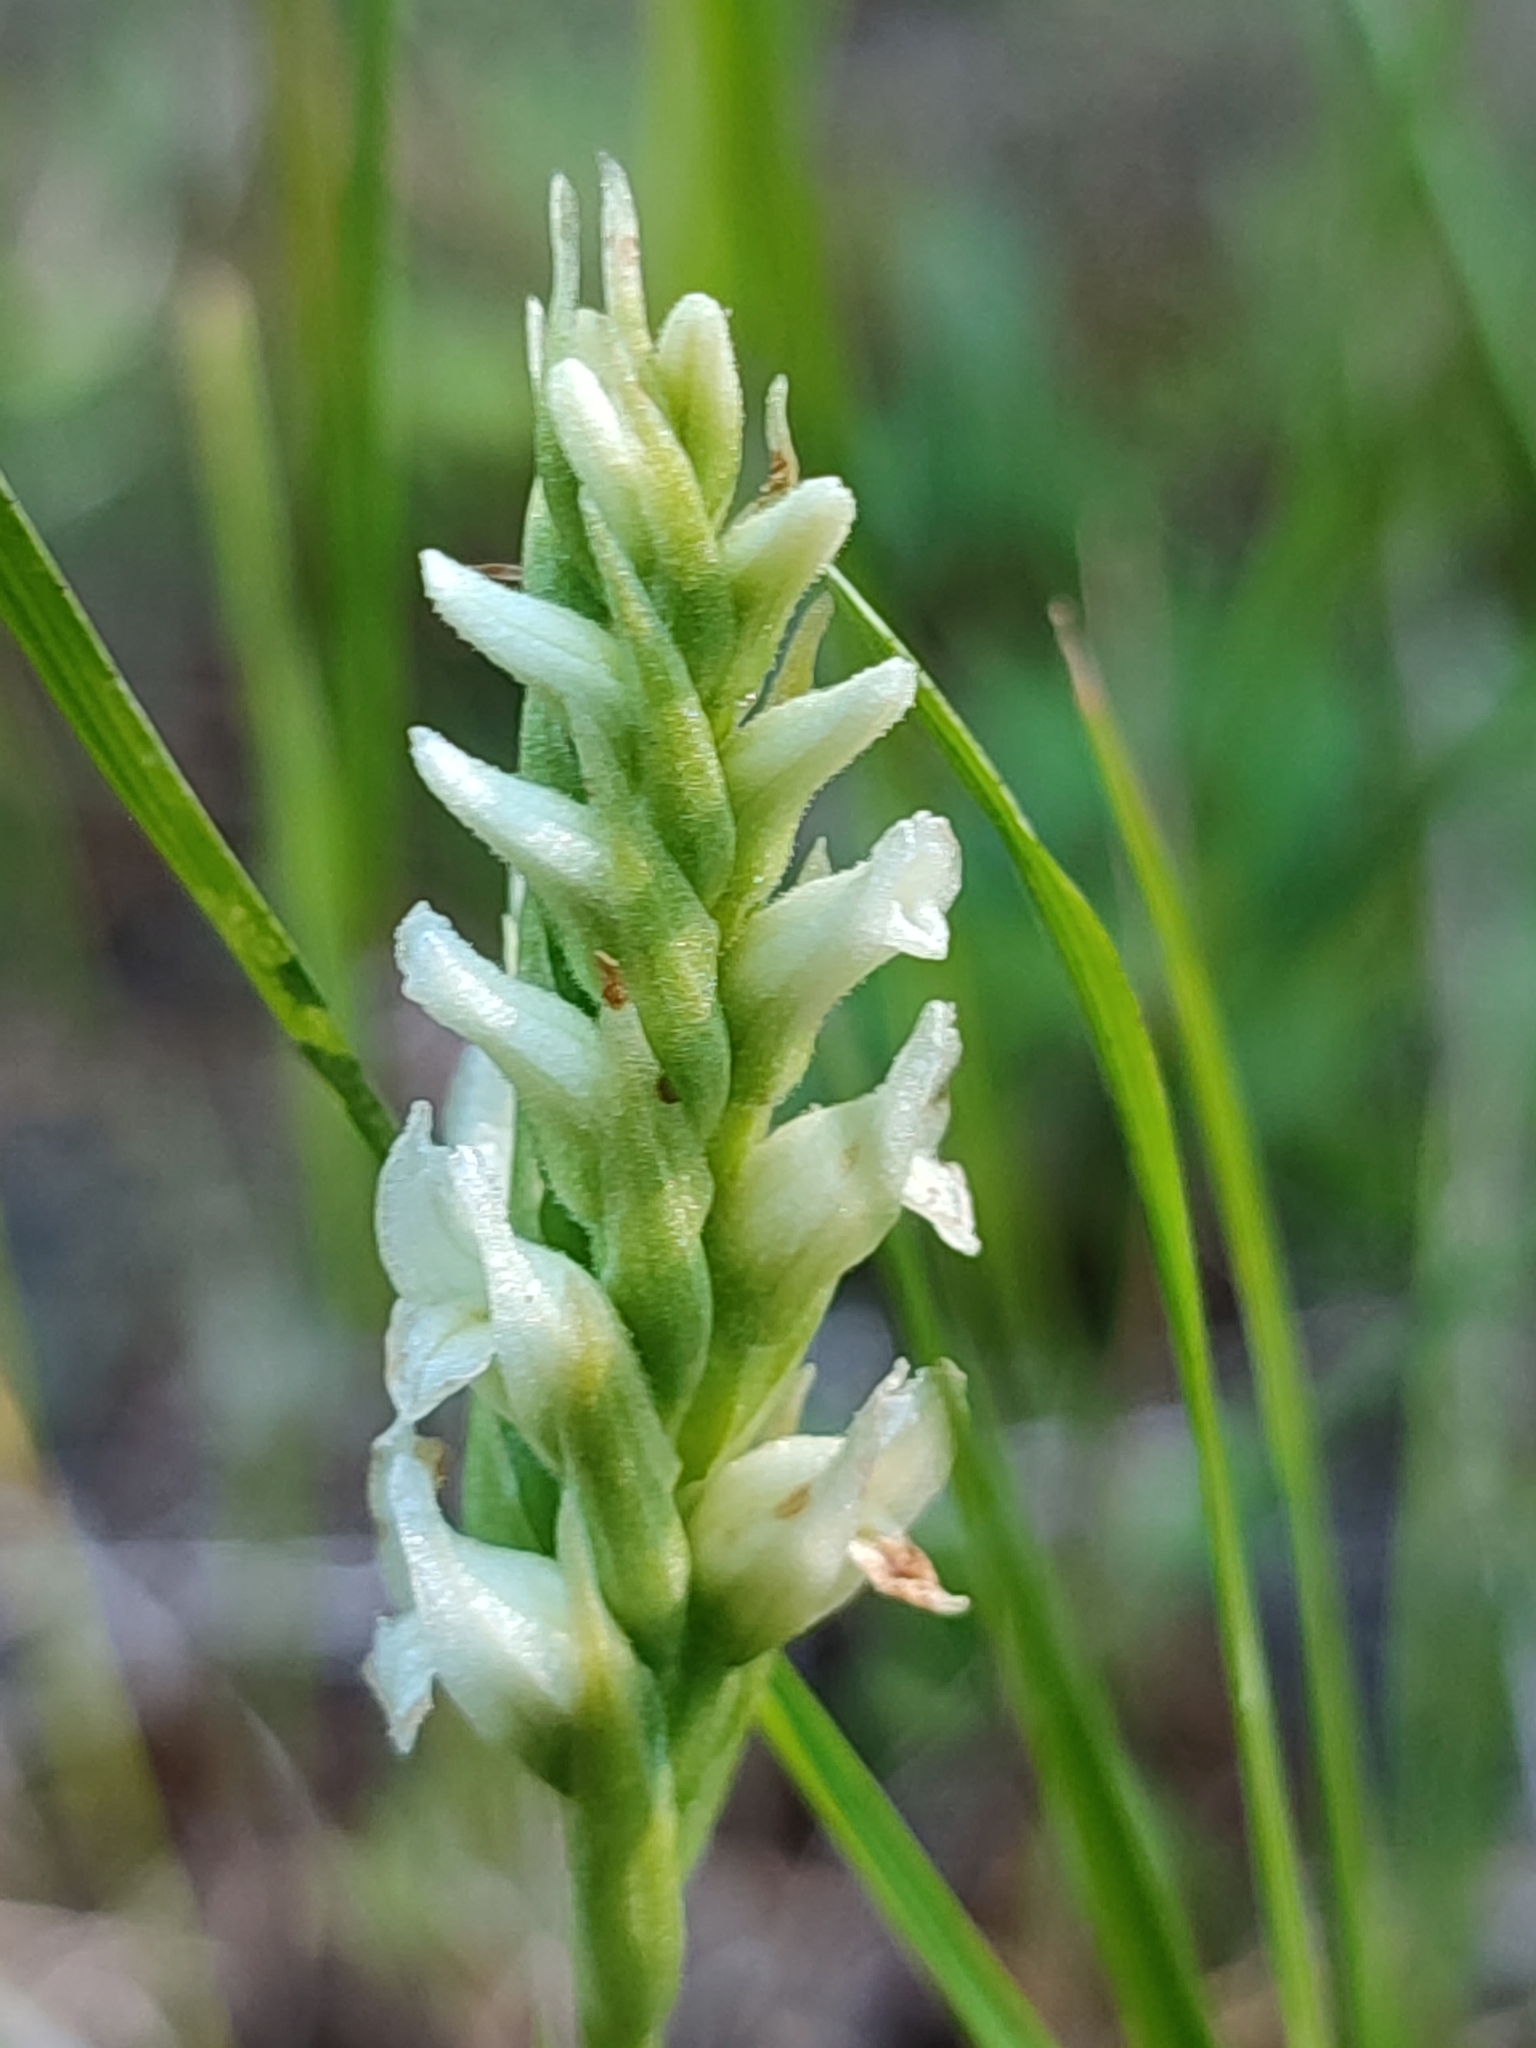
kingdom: Plantae
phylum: Tracheophyta
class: Liliopsida
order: Asparagales
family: Orchidaceae
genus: Spiranthes
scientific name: Spiranthes romanzoffiana
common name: Irish lady's-tresses
